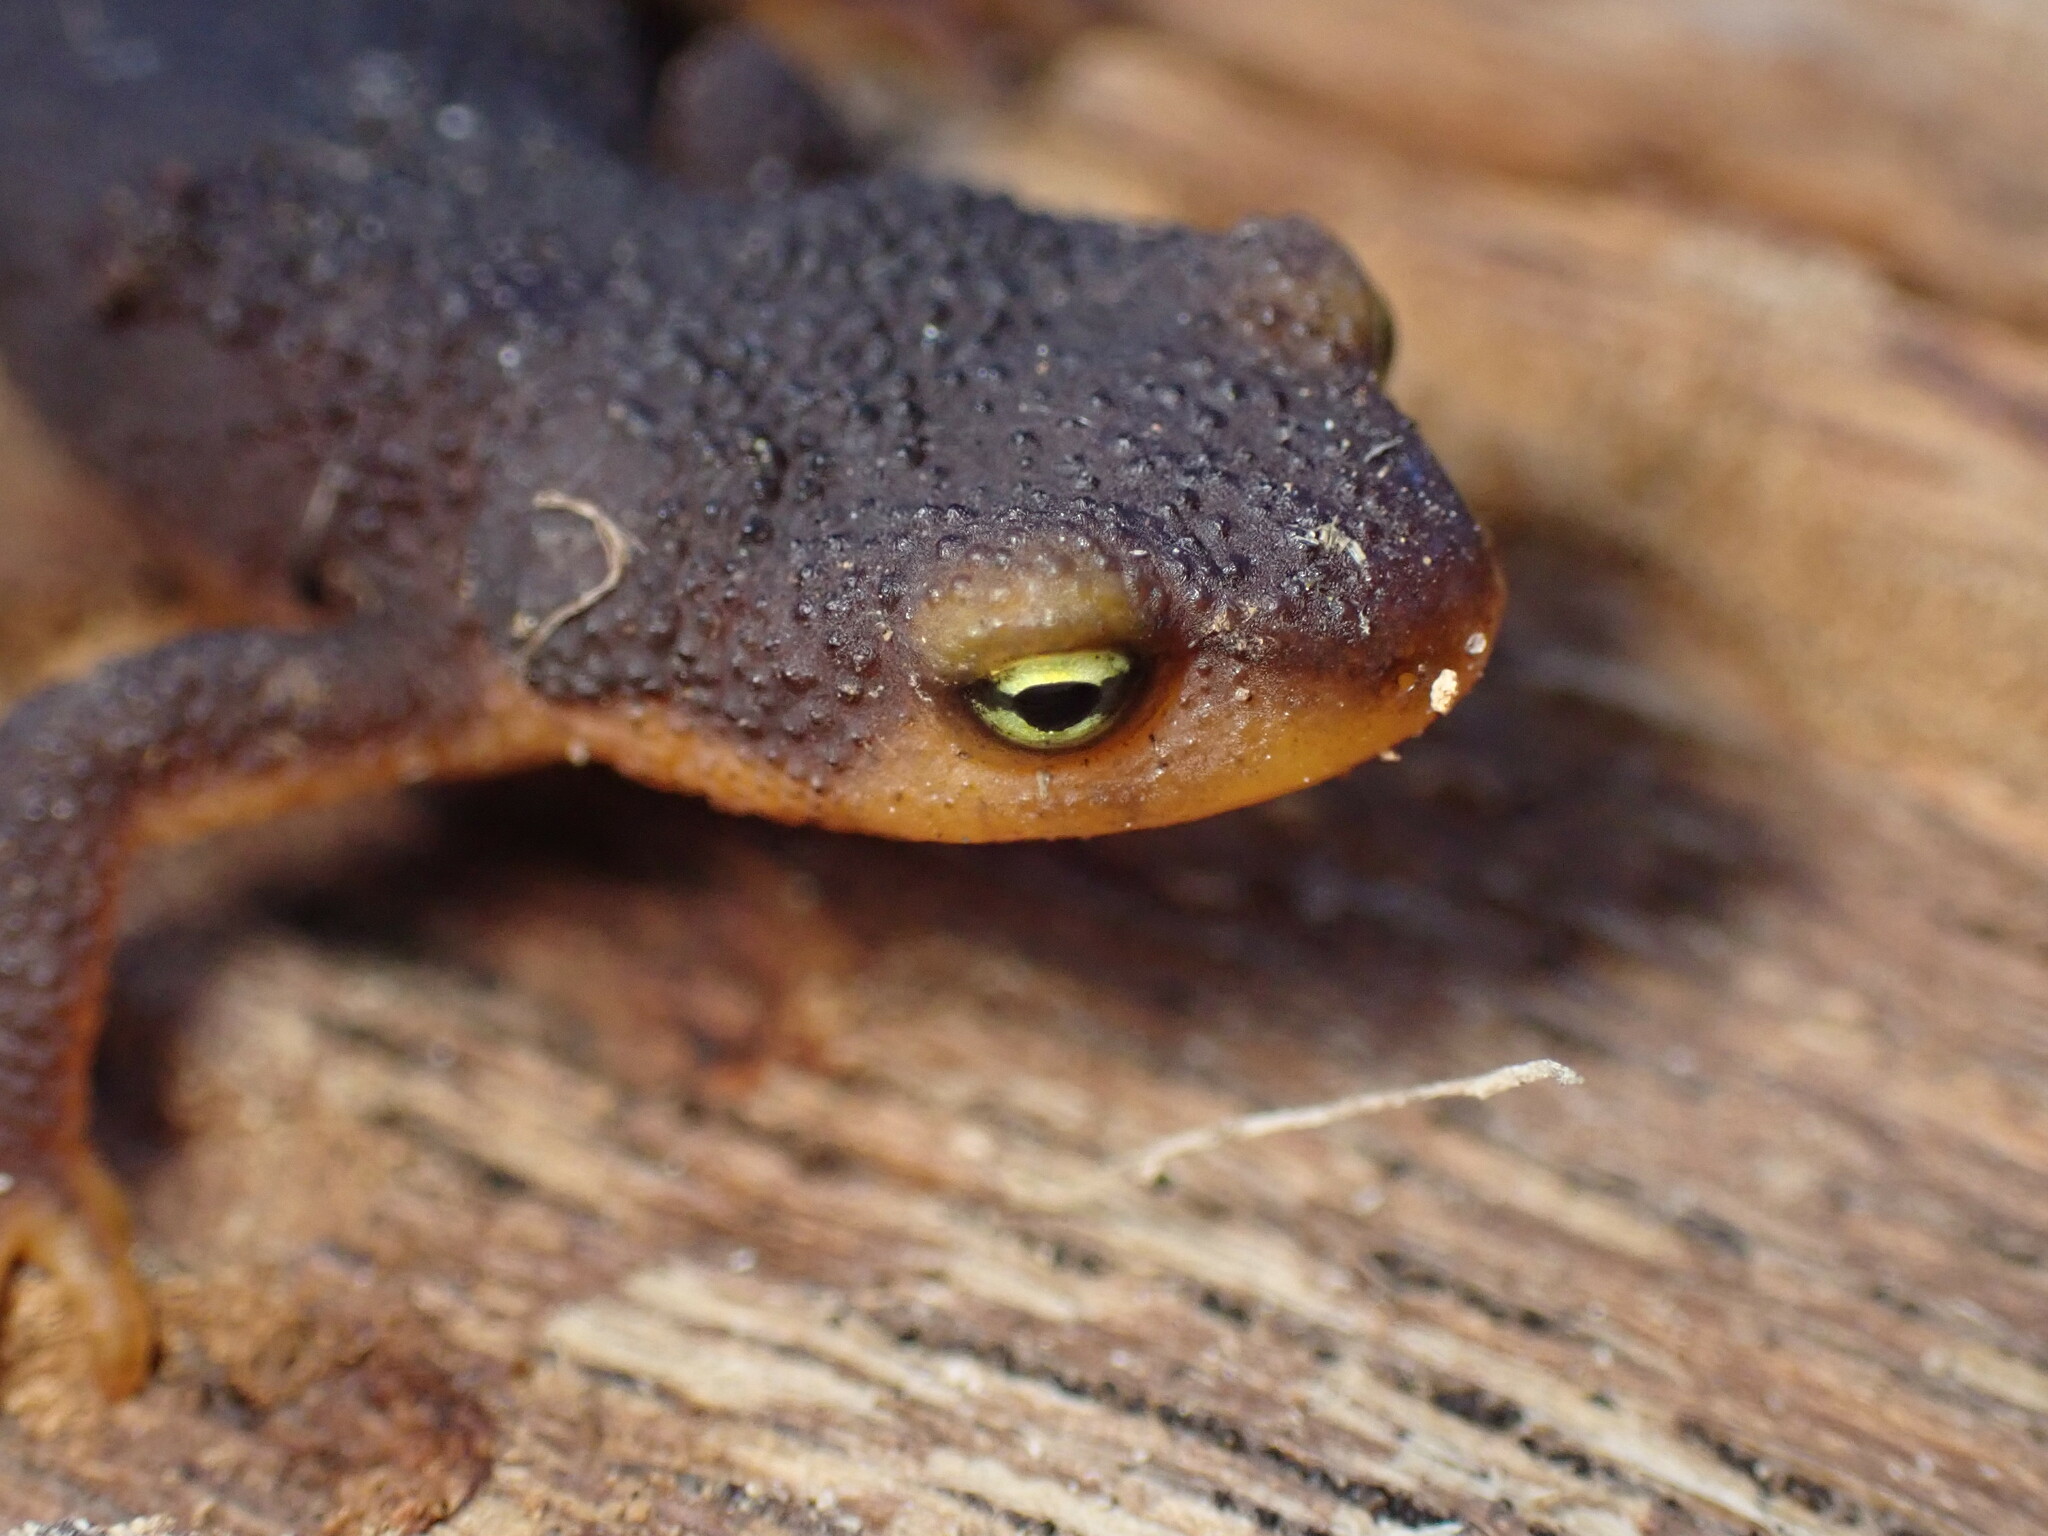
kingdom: Animalia
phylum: Chordata
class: Amphibia
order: Caudata
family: Salamandridae
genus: Taricha
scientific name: Taricha torosa
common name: California newt
